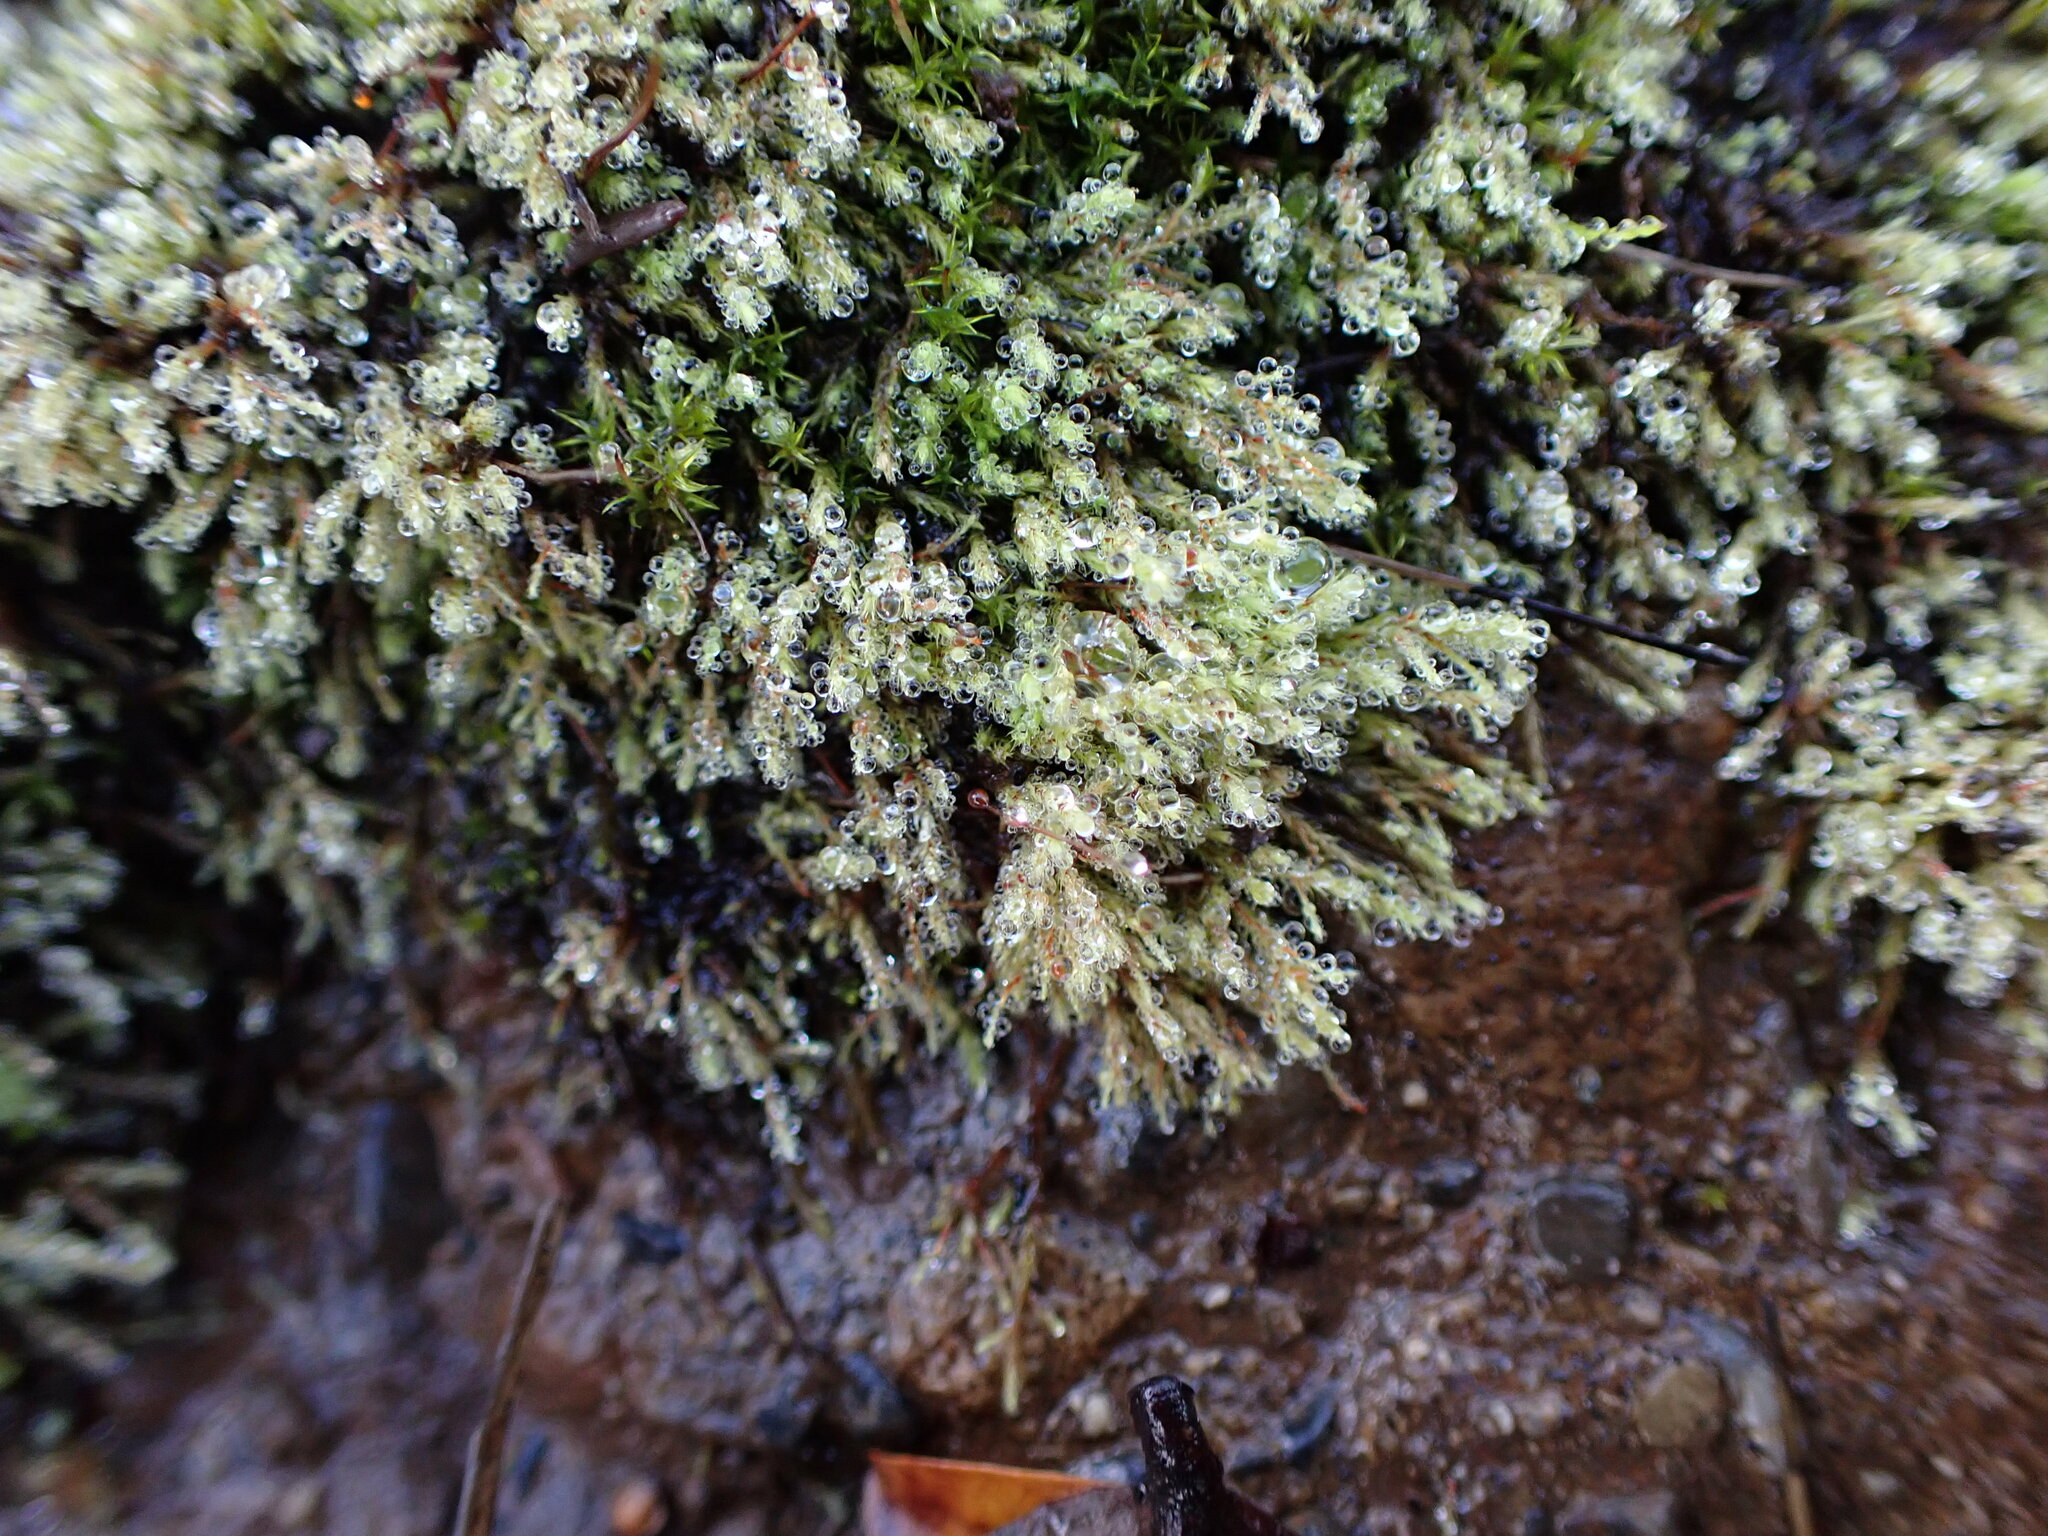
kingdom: Plantae
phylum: Bryophyta
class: Bryopsida
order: Bartramiales
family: Bartramiaceae
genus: Philonotis
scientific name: Philonotis fontana
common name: Fountain apple-moss
